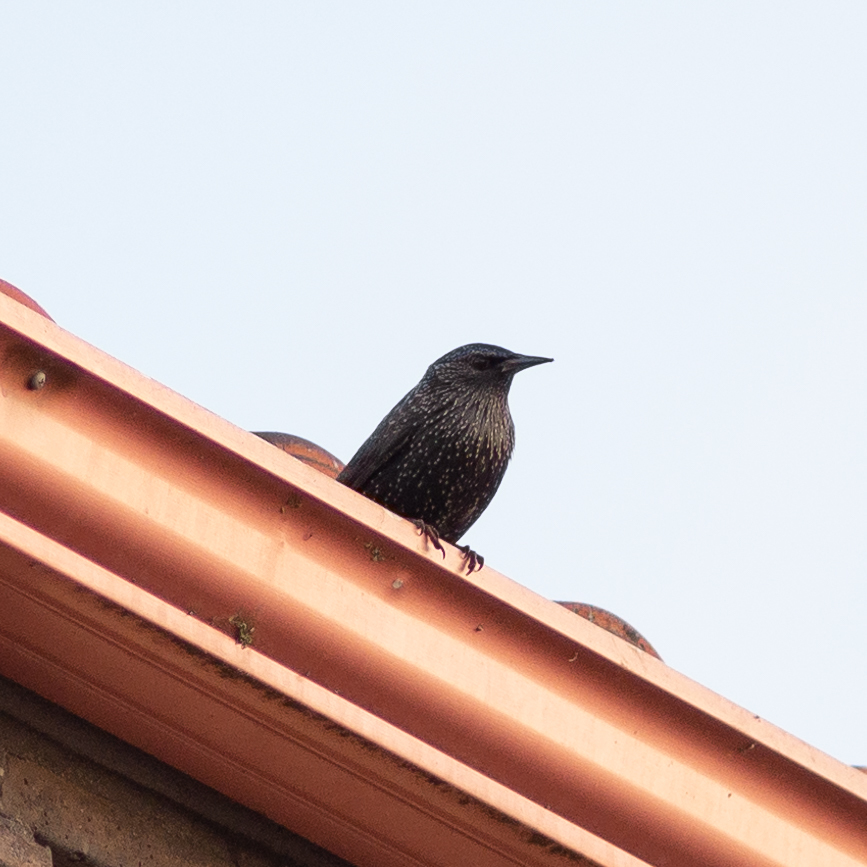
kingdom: Animalia
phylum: Chordata
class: Aves
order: Passeriformes
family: Sturnidae
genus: Sturnus
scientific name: Sturnus unicolor
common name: Spotless starling
